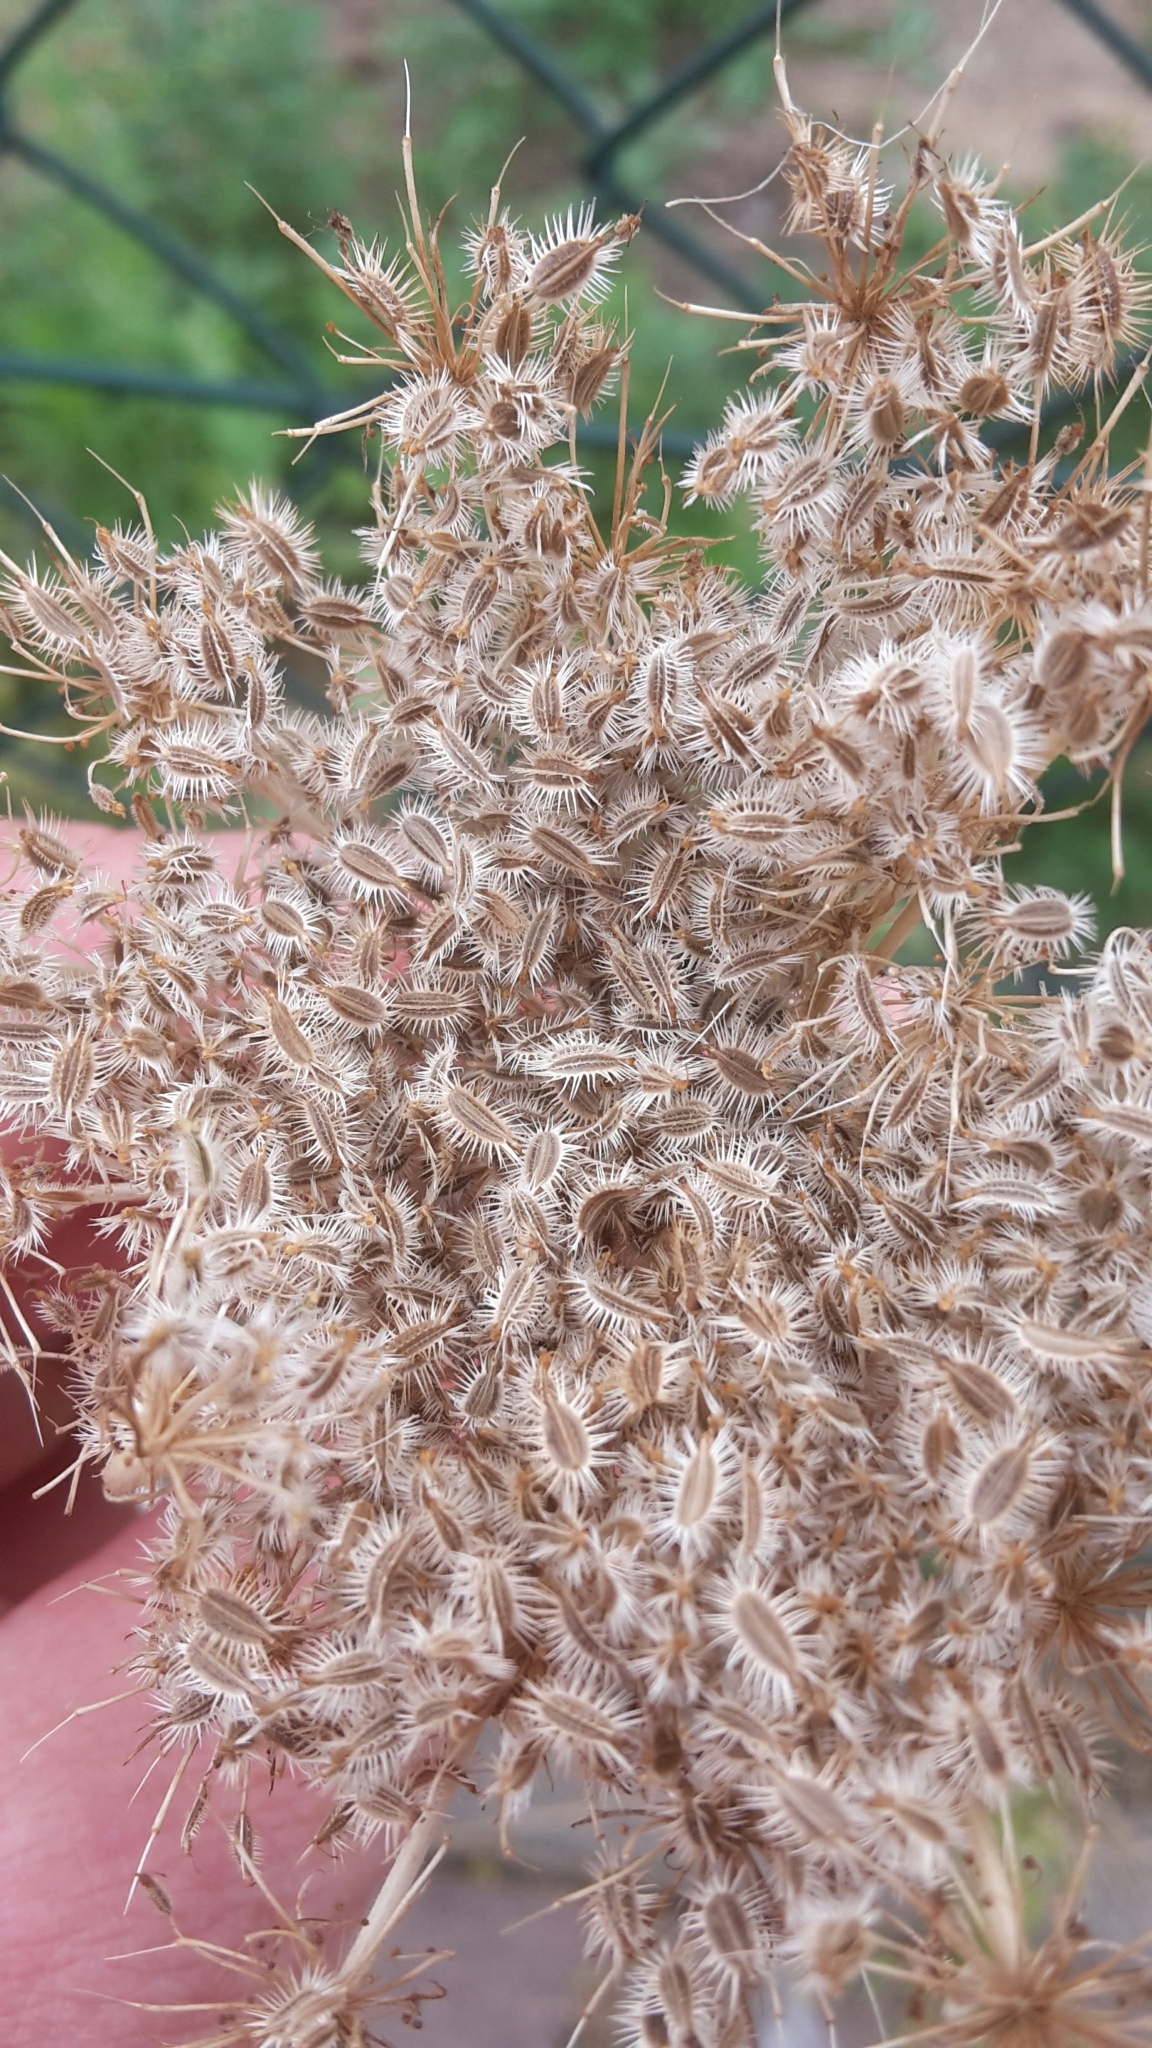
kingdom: Plantae
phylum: Tracheophyta
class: Magnoliopsida
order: Apiales
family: Apiaceae
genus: Daucus
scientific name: Daucus carota
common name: Wild carrot
